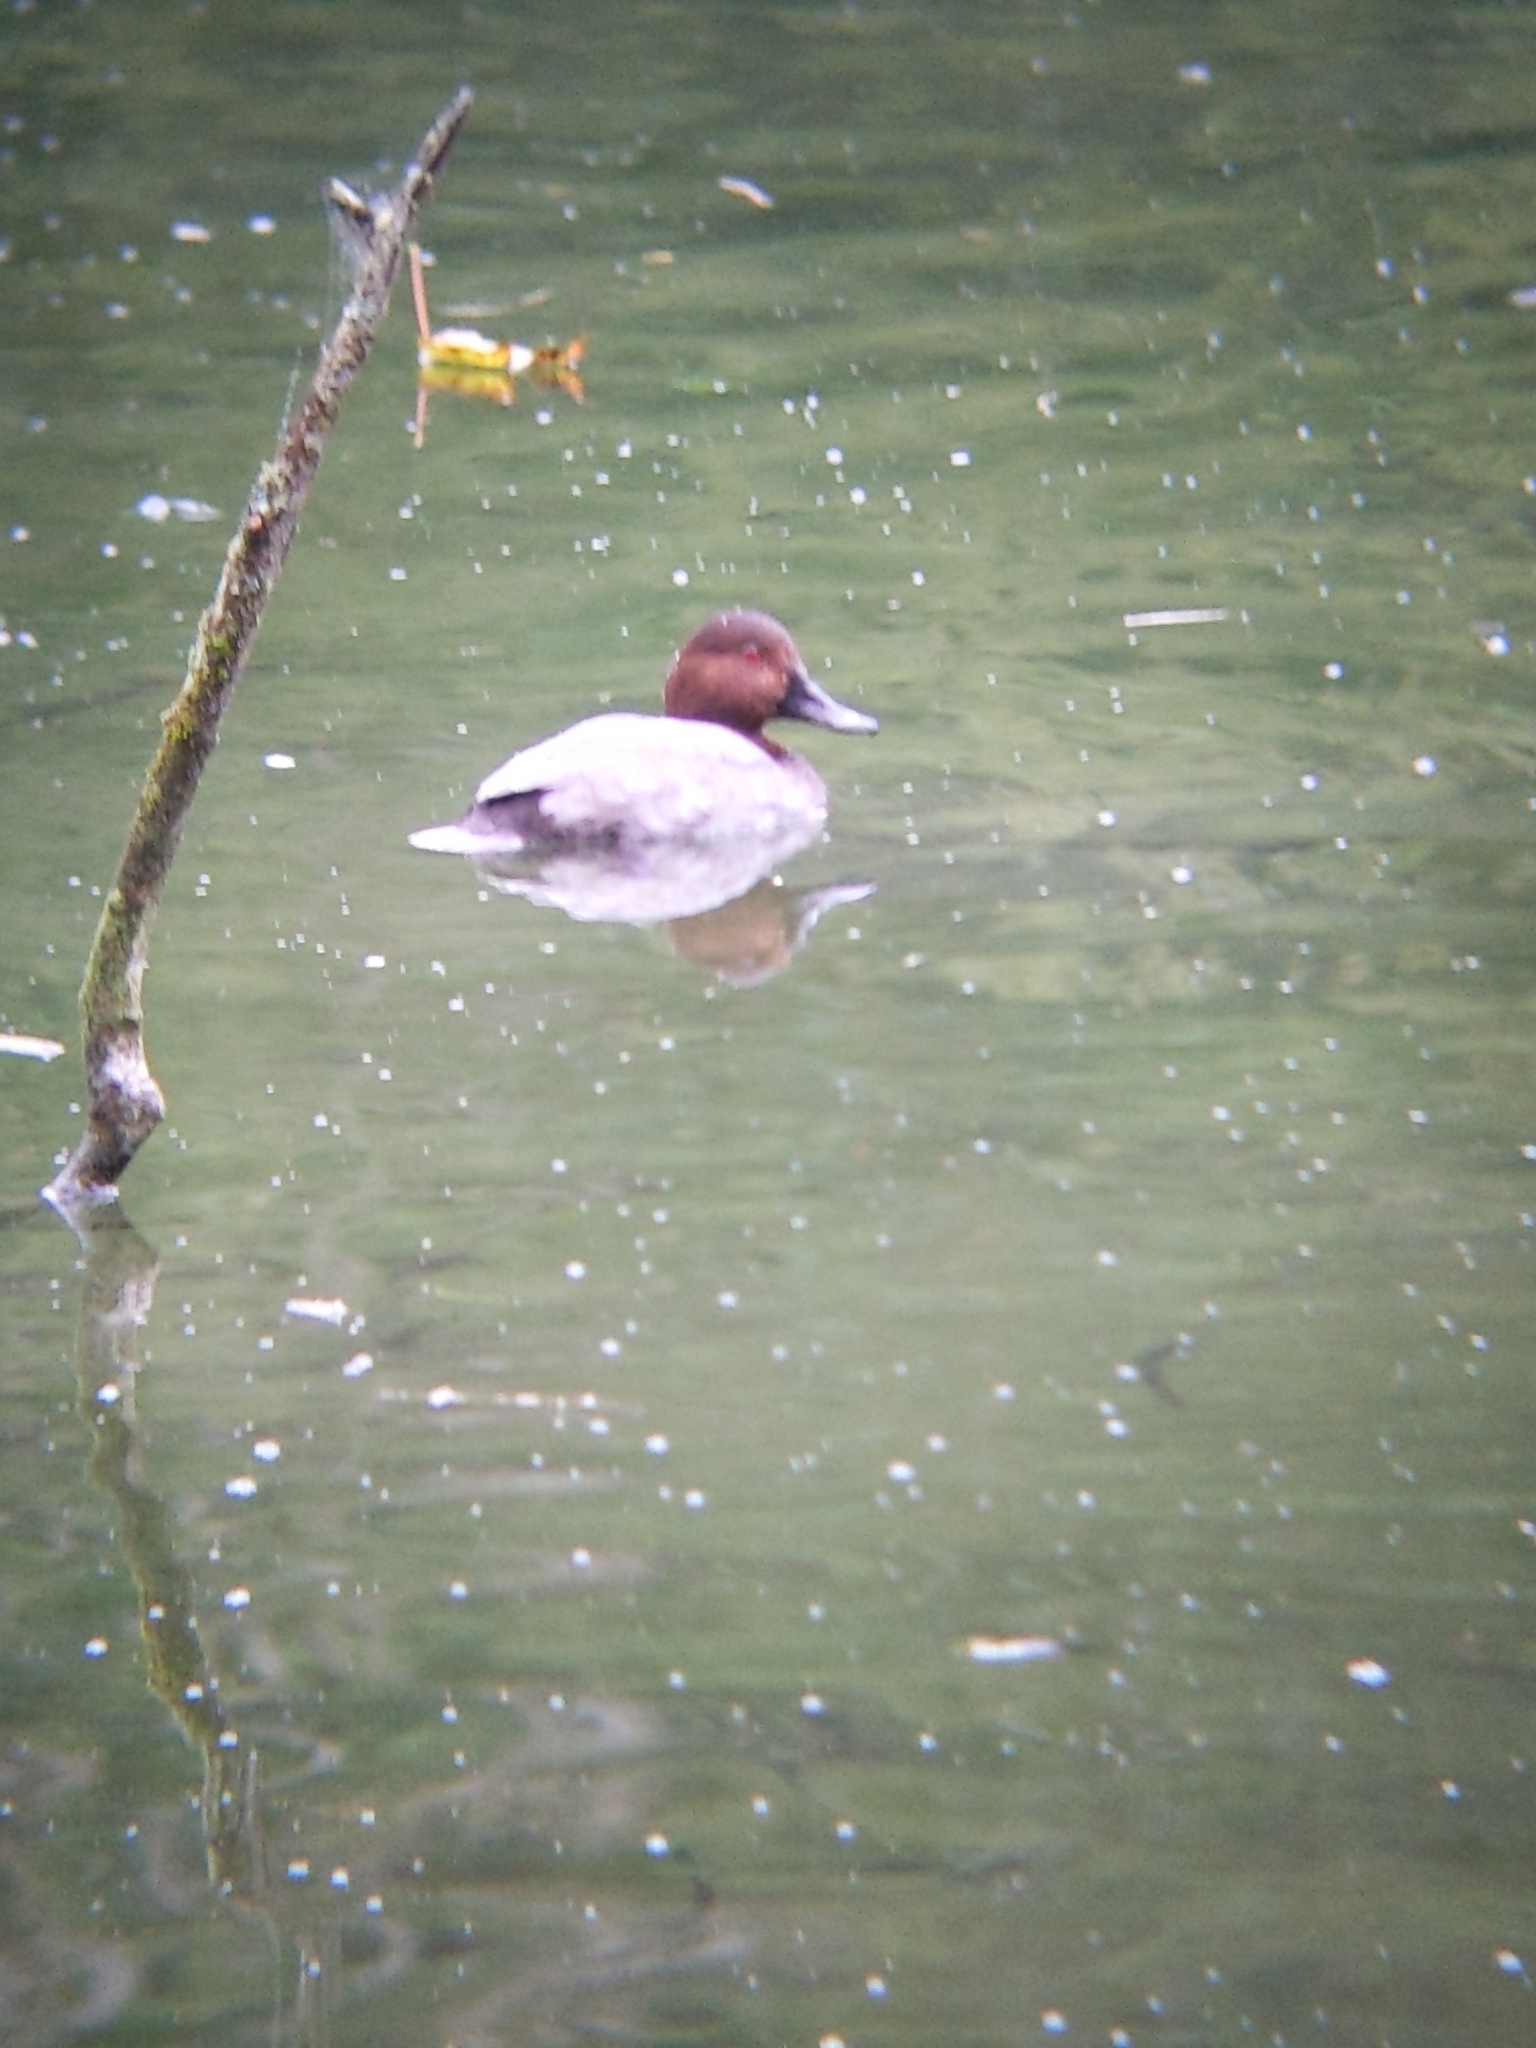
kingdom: Animalia
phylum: Chordata
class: Aves
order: Anseriformes
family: Anatidae
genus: Aythya
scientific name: Aythya ferina
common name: Common pochard
